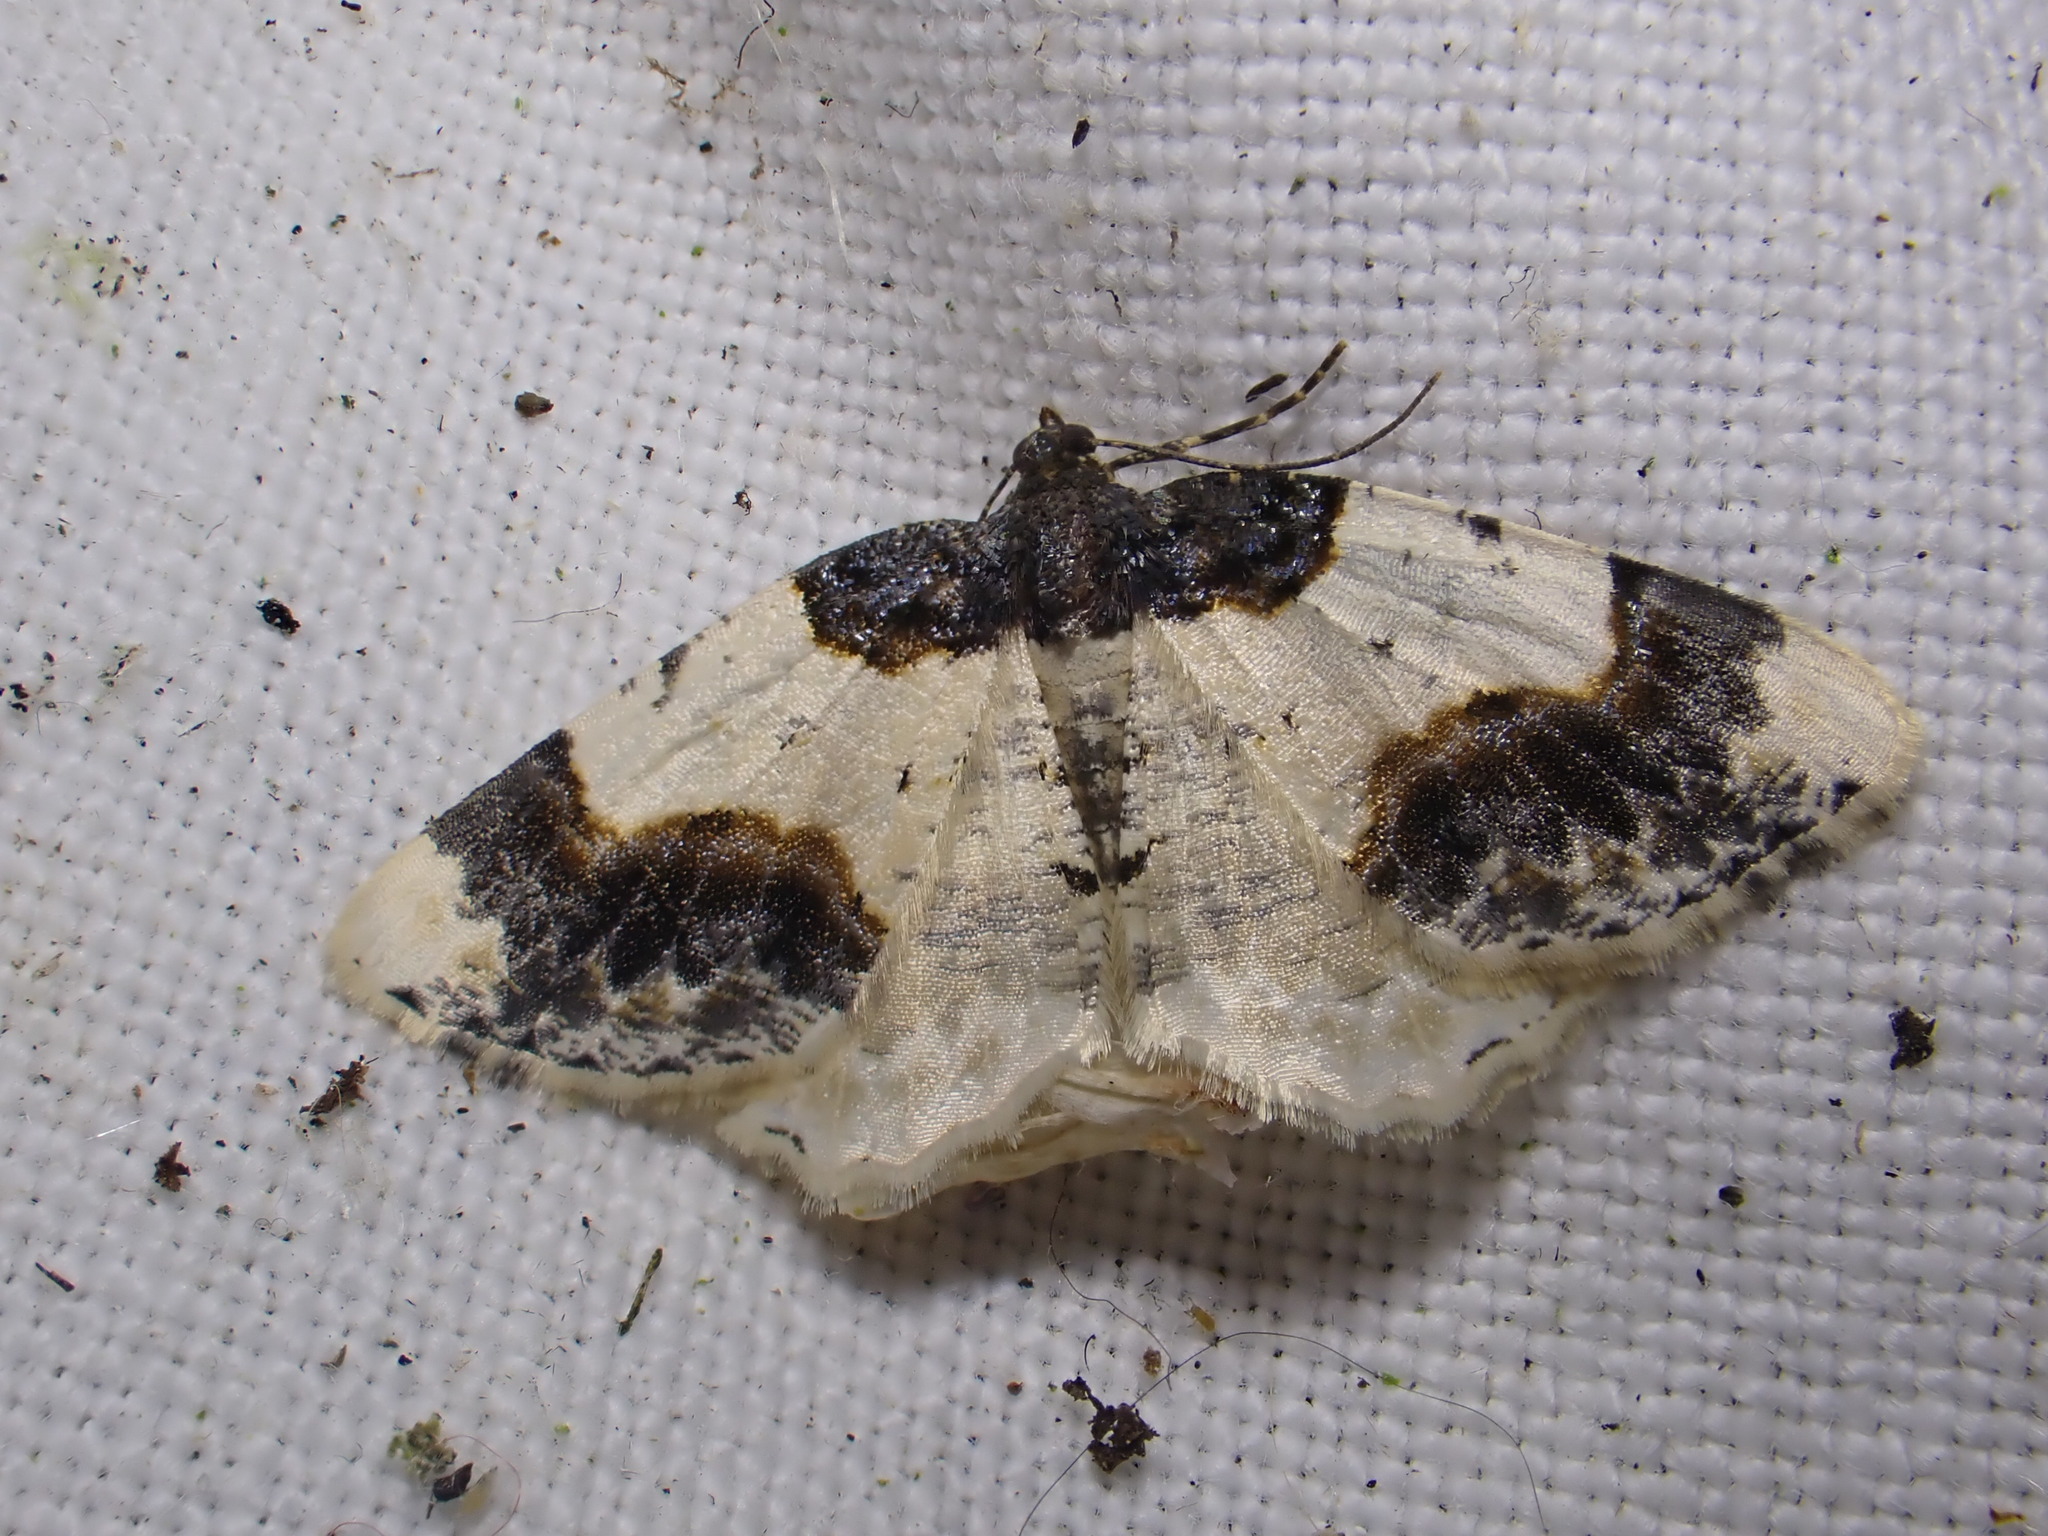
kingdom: Animalia
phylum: Arthropoda
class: Insecta
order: Lepidoptera
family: Geometridae
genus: Ligdia
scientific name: Ligdia adustata
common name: Scorched carpet
